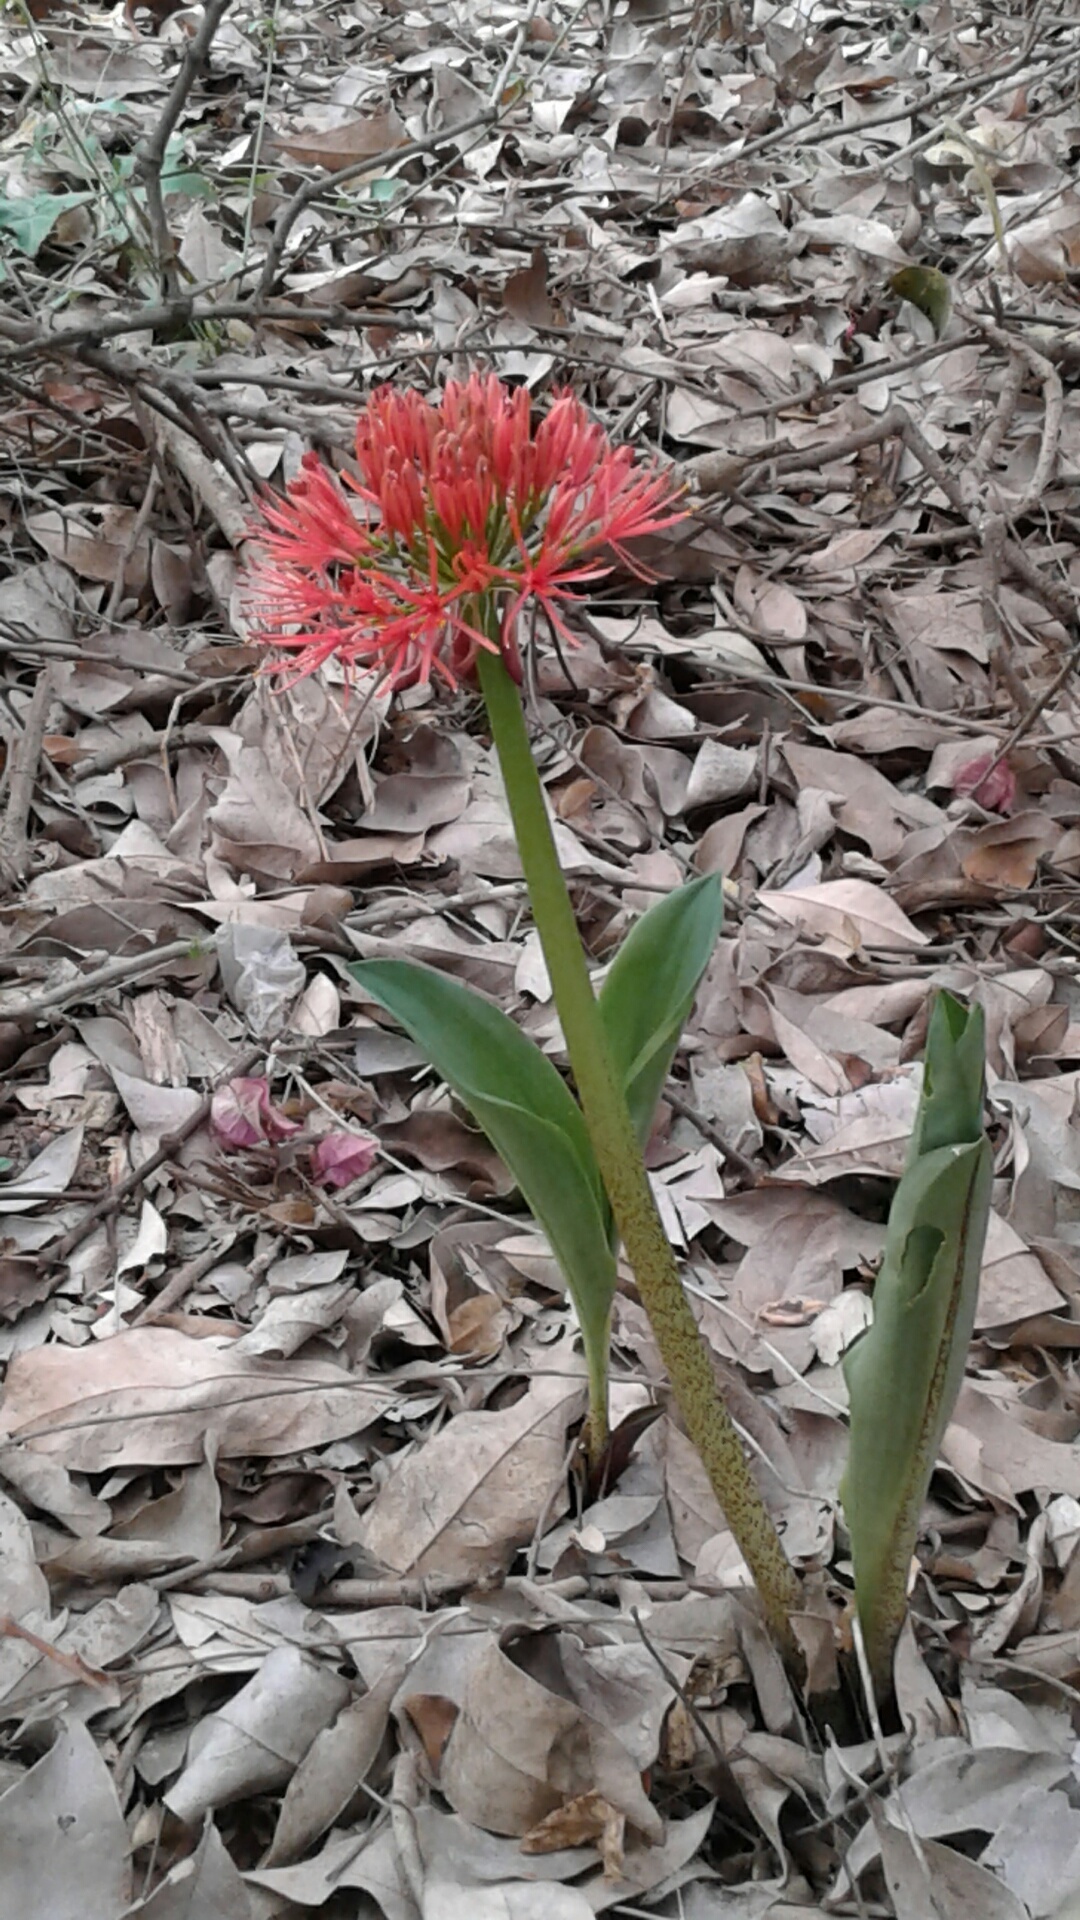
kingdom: Plantae
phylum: Tracheophyta
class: Liliopsida
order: Asparagales
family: Amaryllidaceae
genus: Scadoxus
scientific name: Scadoxus multiflorus
